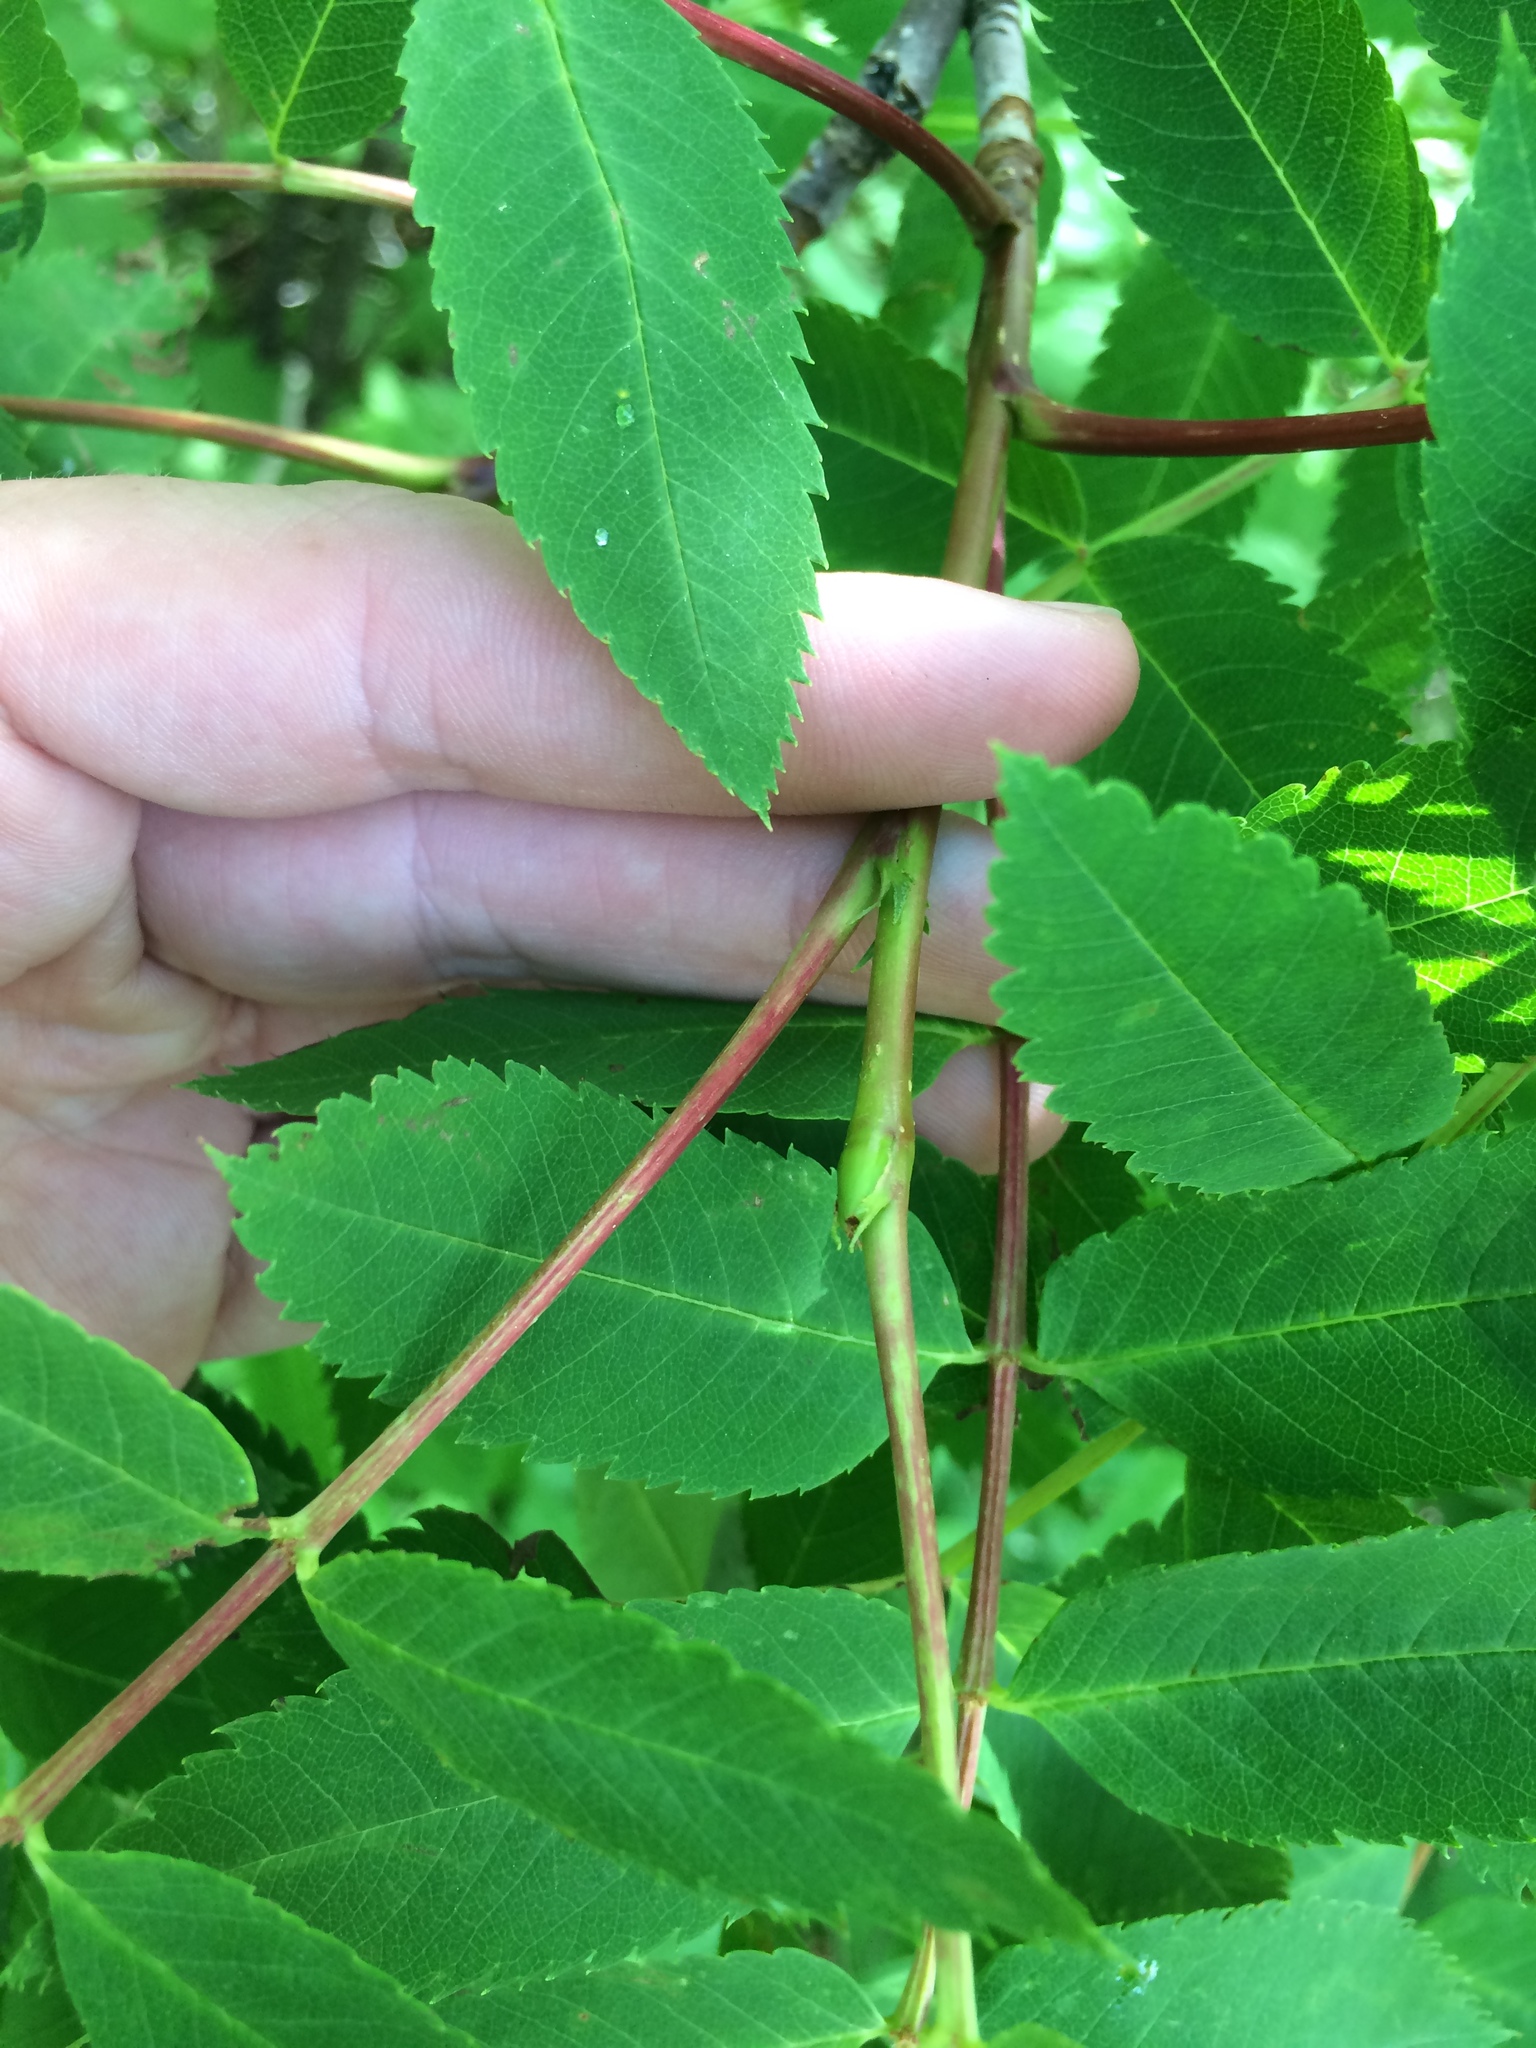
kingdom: Plantae
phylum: Tracheophyta
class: Magnoliopsida
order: Rosales
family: Rosaceae
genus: Sorbus
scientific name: Sorbus americana
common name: American mountain-ash
